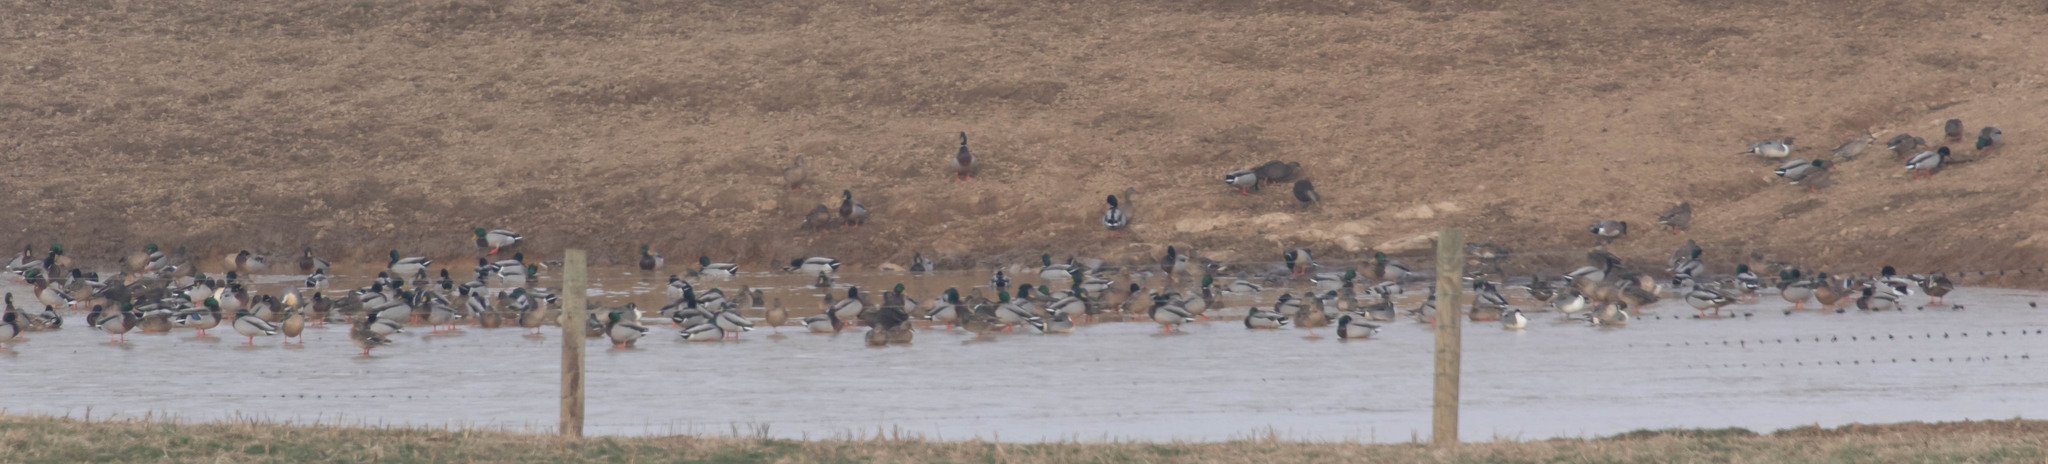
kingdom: Animalia
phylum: Chordata
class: Aves
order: Anseriformes
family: Anatidae
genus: Anas
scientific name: Anas platyrhynchos
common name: Mallard
